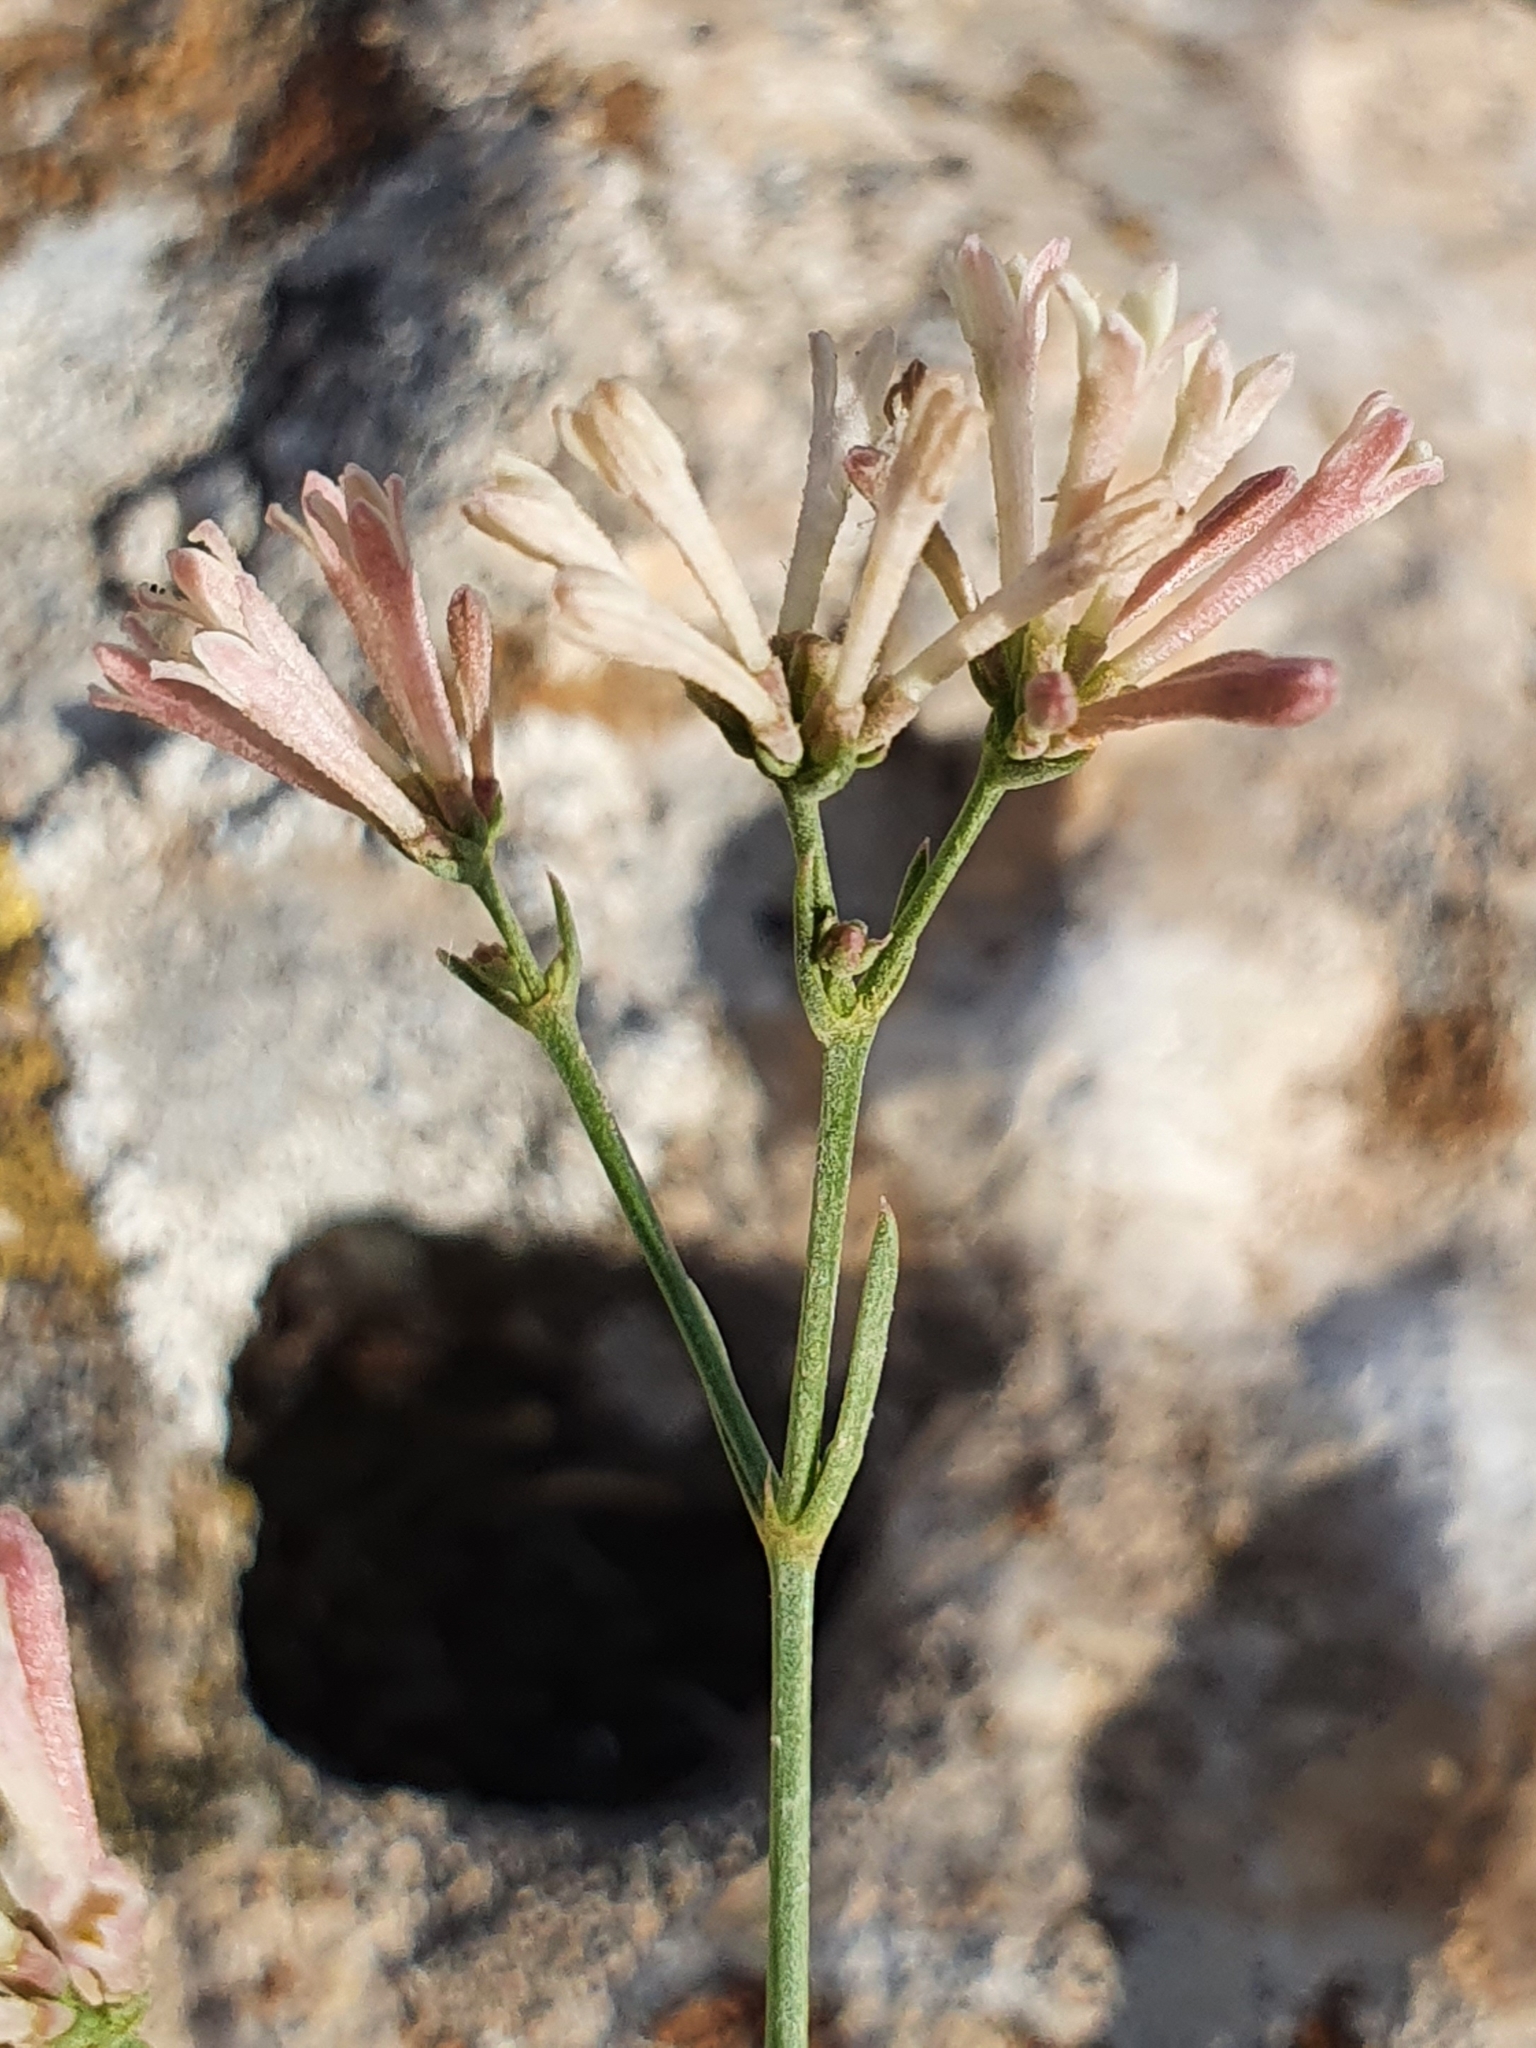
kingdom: Plantae
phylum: Tracheophyta
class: Magnoliopsida
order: Gentianales
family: Rubiaceae
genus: Cynanchica
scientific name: Cynanchica aristata
